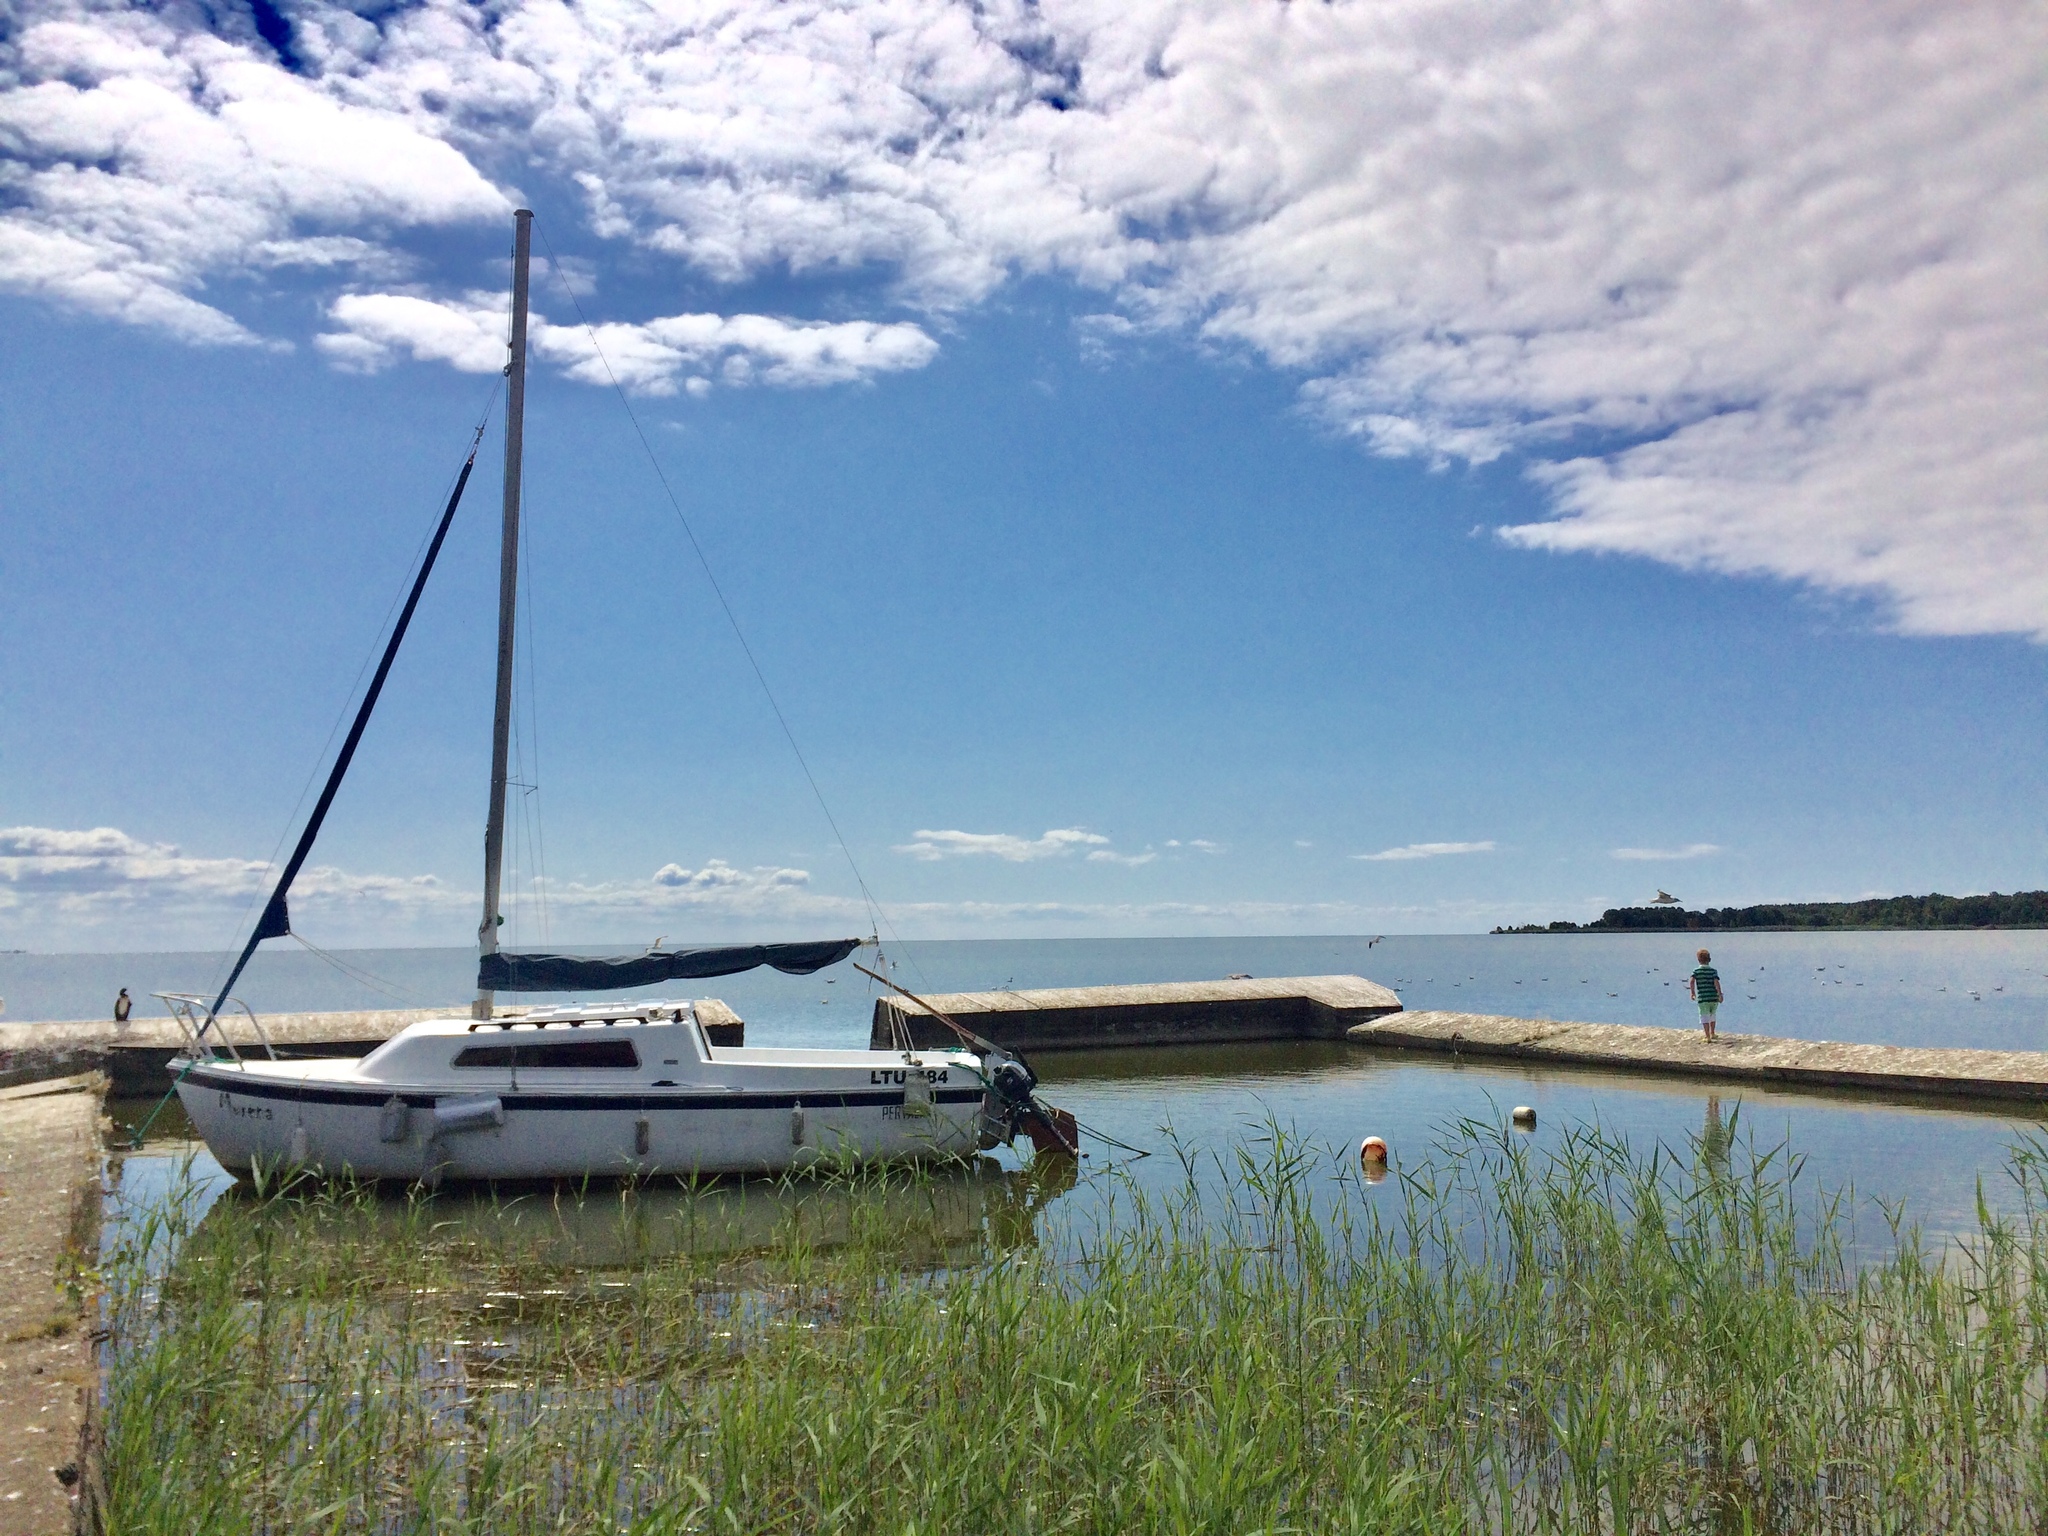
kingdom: Plantae
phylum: Tracheophyta
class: Liliopsida
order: Poales
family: Poaceae
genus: Phragmites
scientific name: Phragmites australis
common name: Common reed
